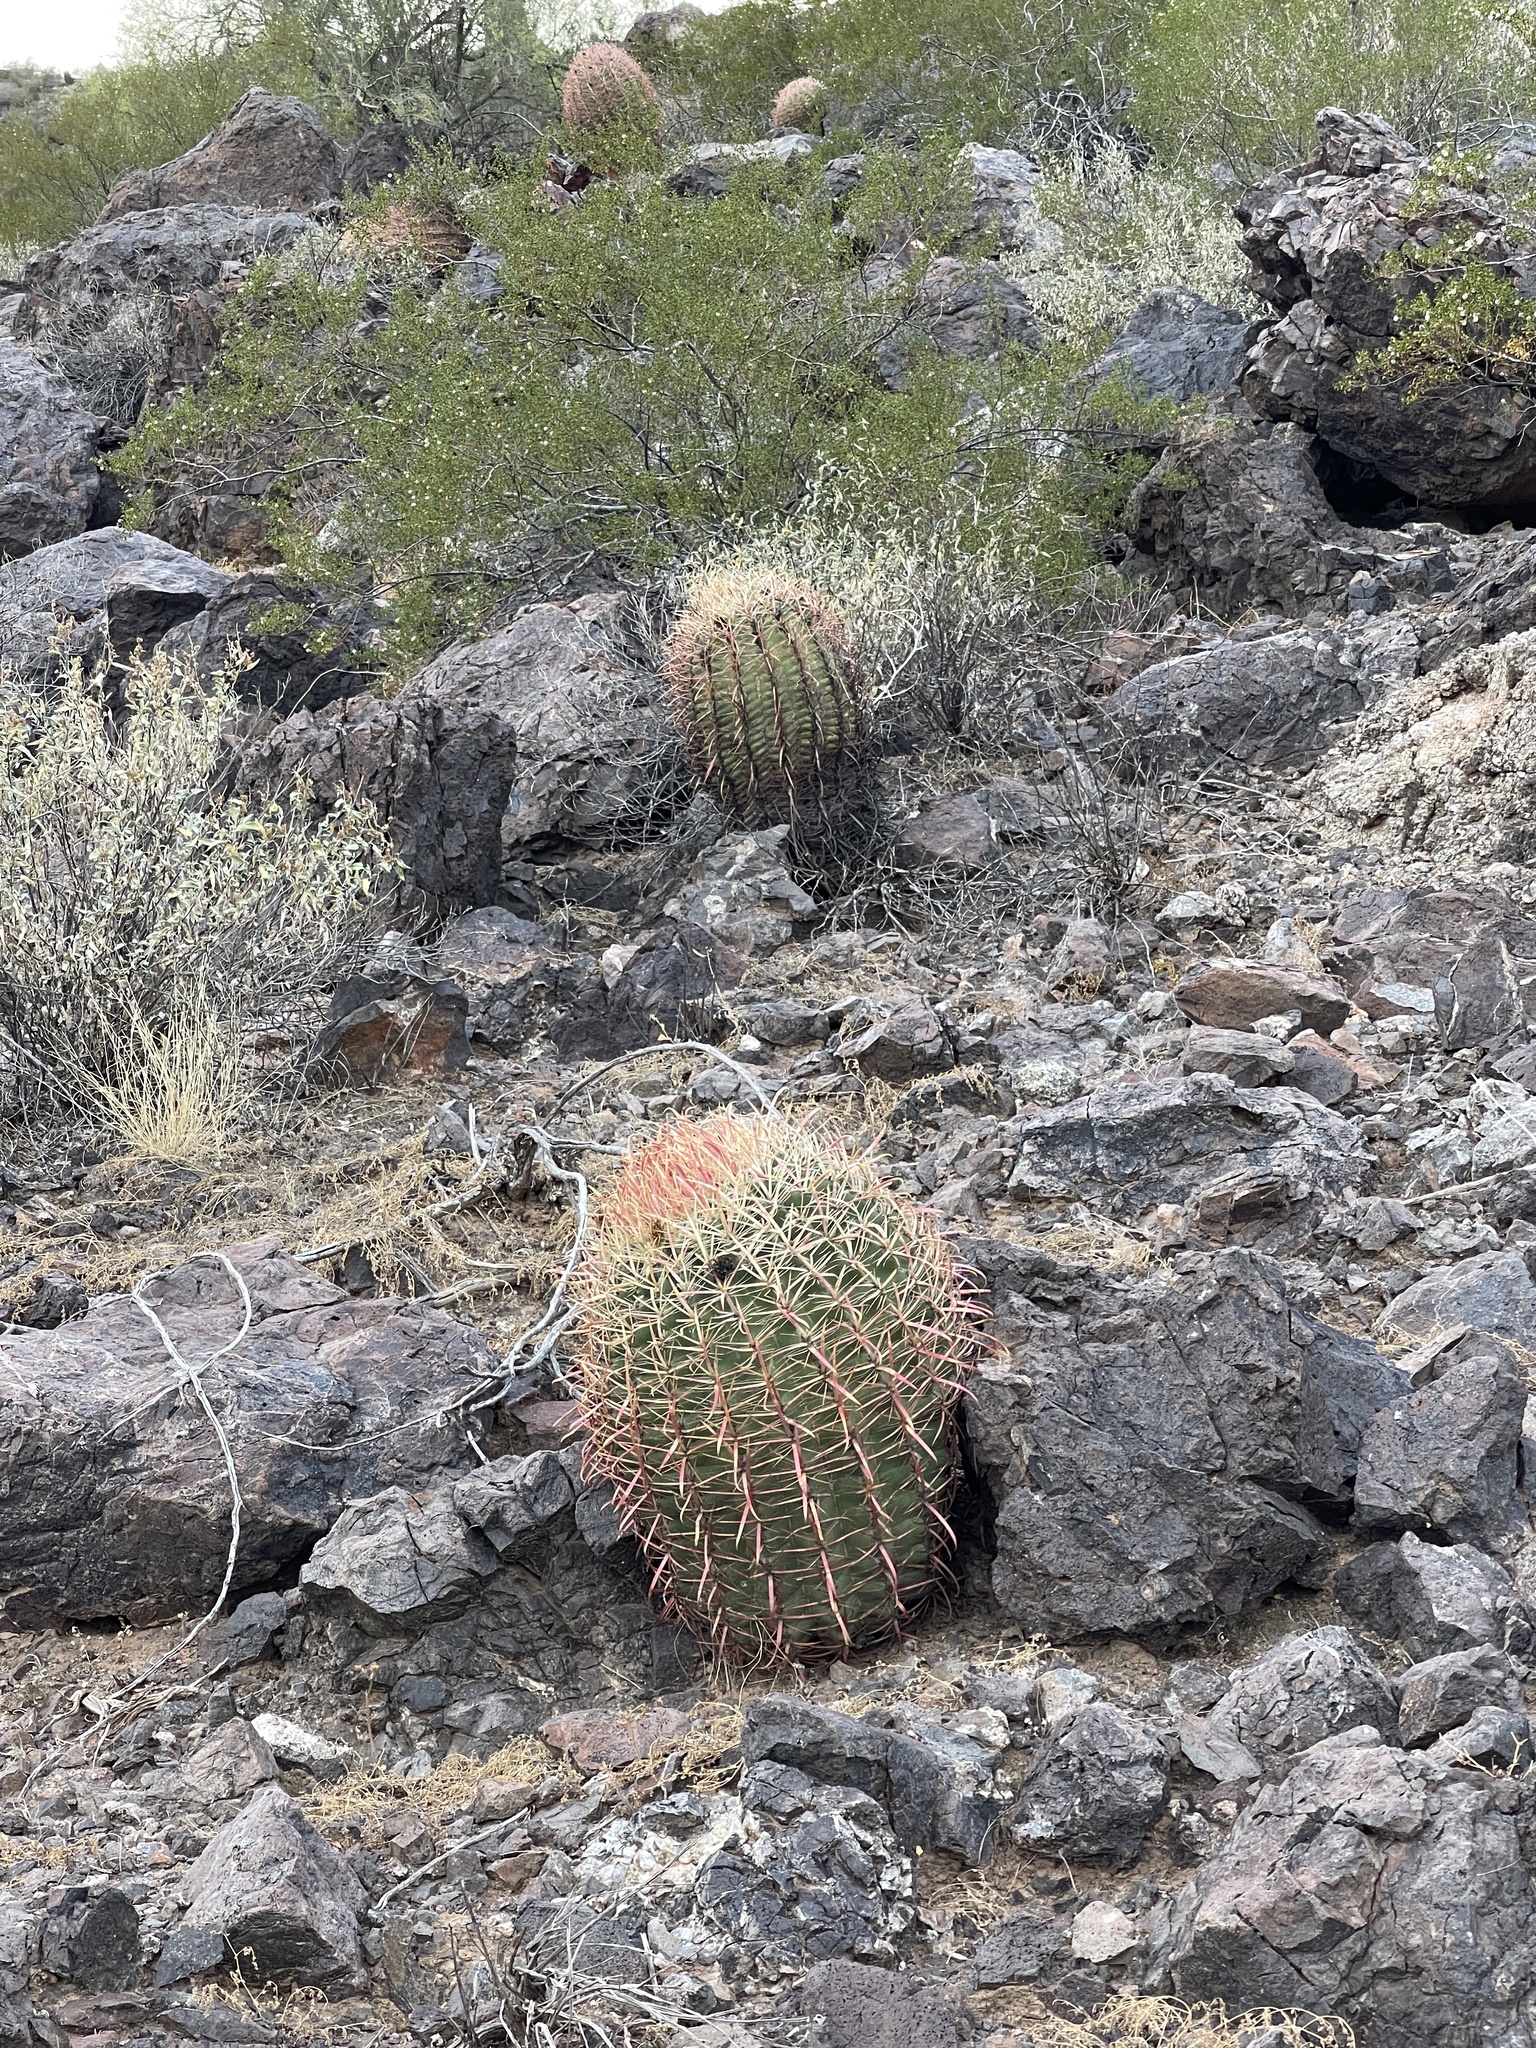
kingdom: Plantae
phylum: Tracheophyta
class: Magnoliopsida
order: Caryophyllales
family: Cactaceae
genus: Ferocactus
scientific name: Ferocactus cylindraceus
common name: California barrel cactus
